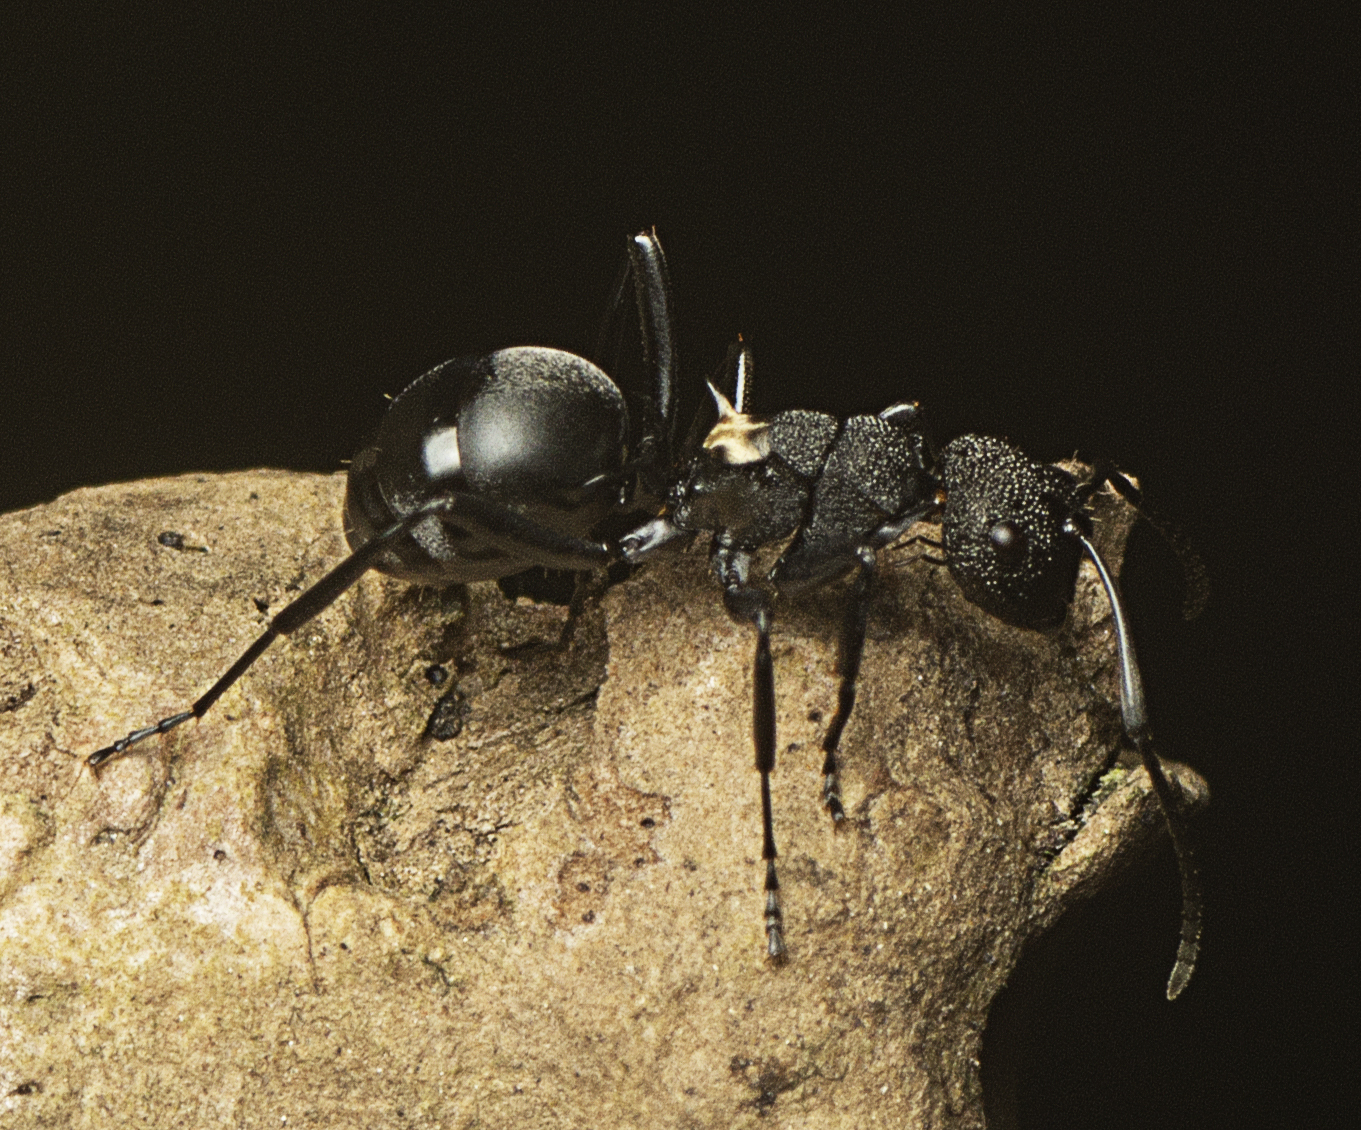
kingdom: Animalia
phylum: Arthropoda
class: Insecta
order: Hymenoptera
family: Formicidae
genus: Polyrhachis
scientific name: Polyrhachis machaon
